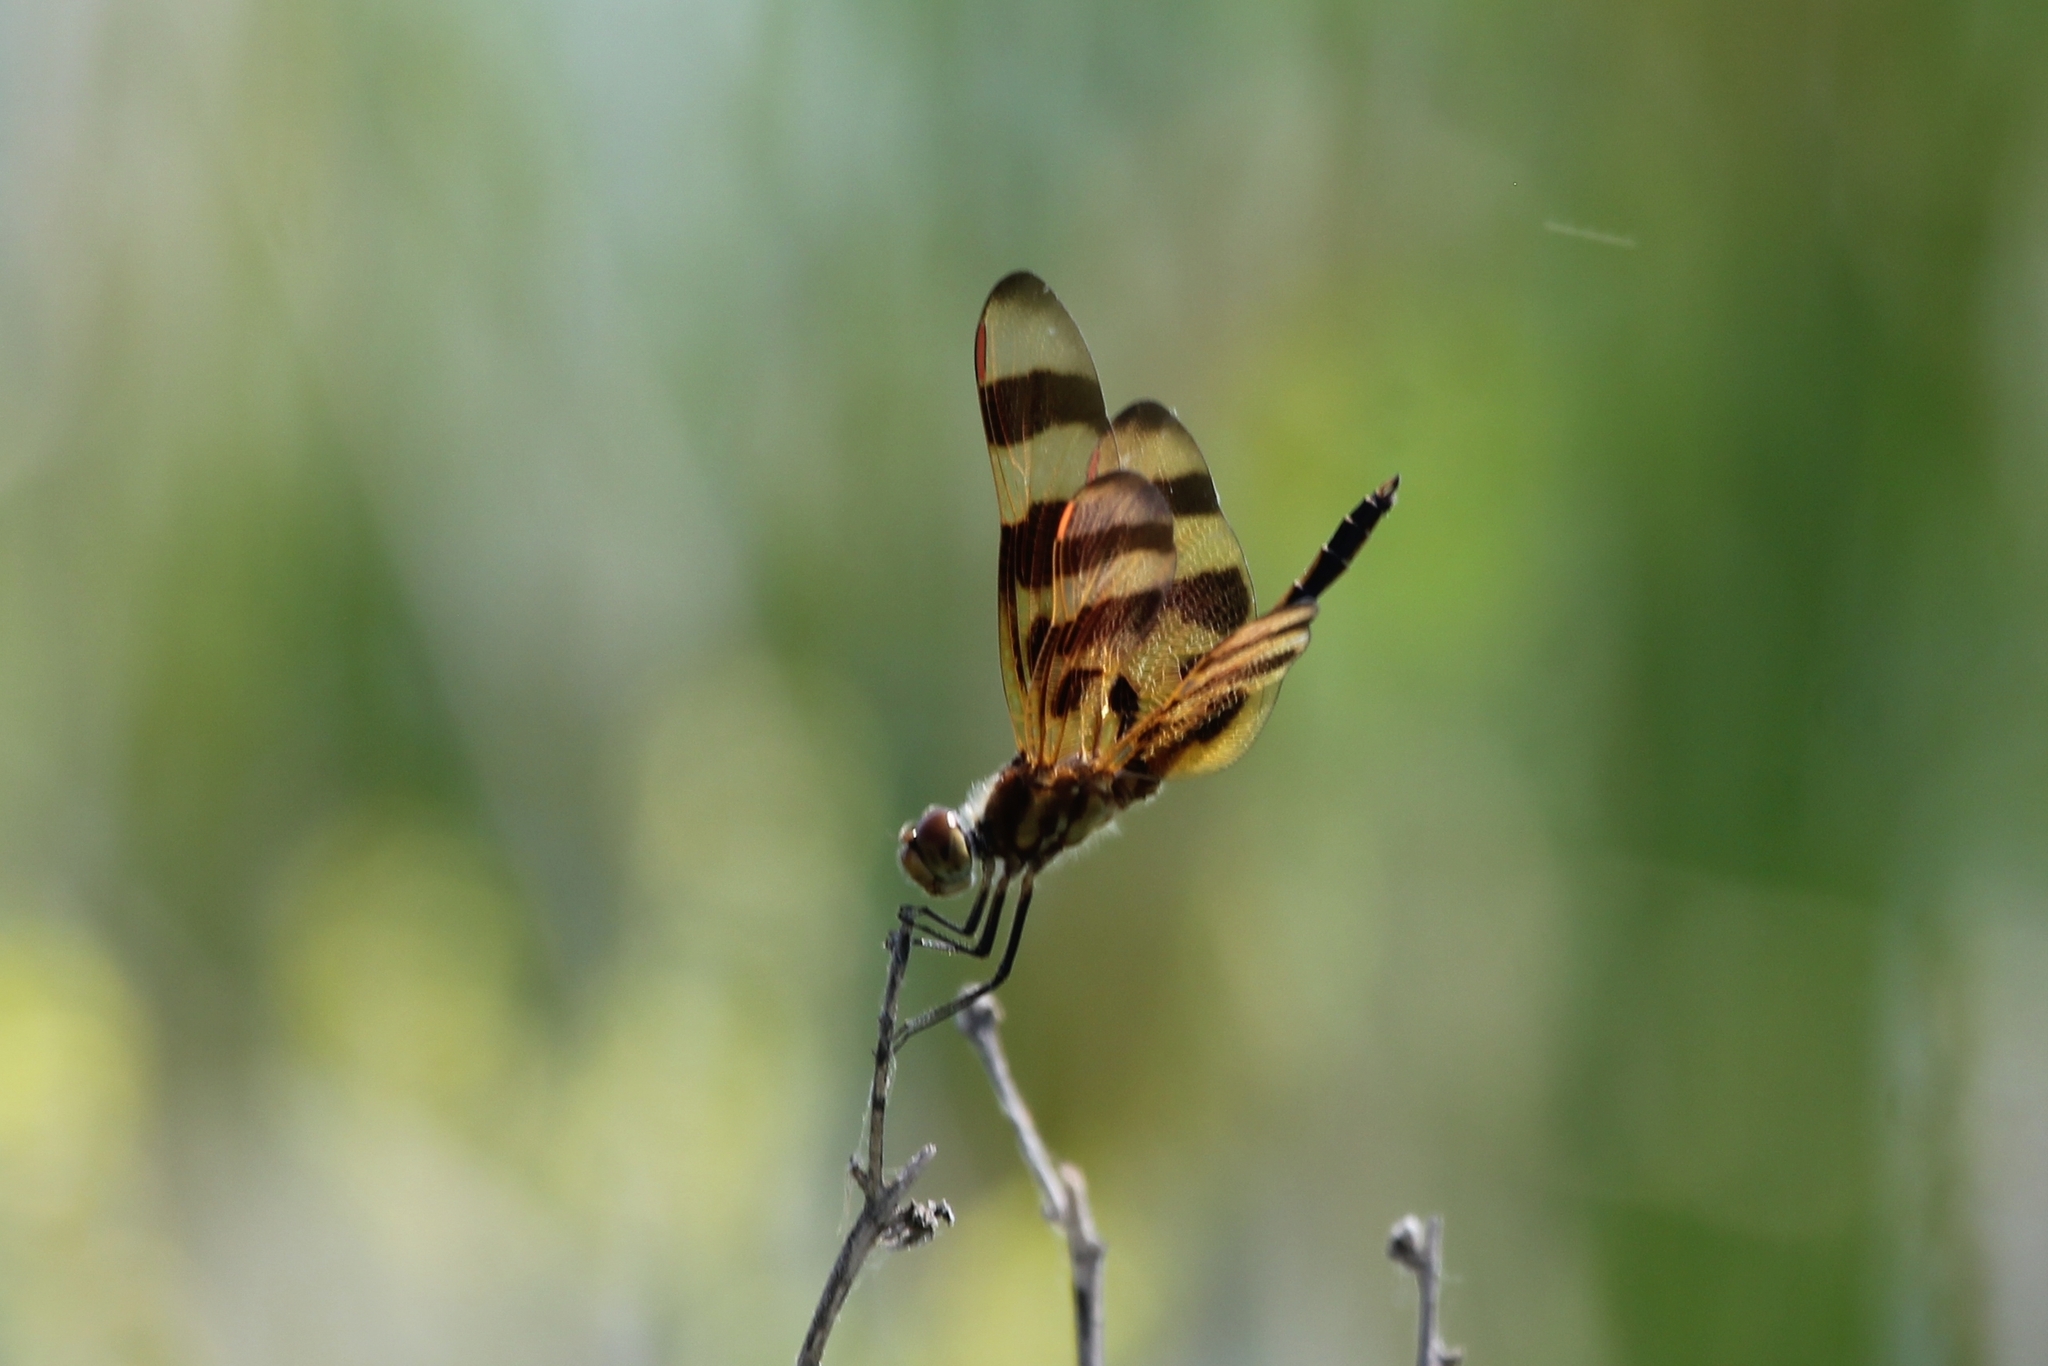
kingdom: Animalia
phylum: Arthropoda
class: Insecta
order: Odonata
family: Libellulidae
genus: Celithemis
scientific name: Celithemis eponina
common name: Halloween pennant
